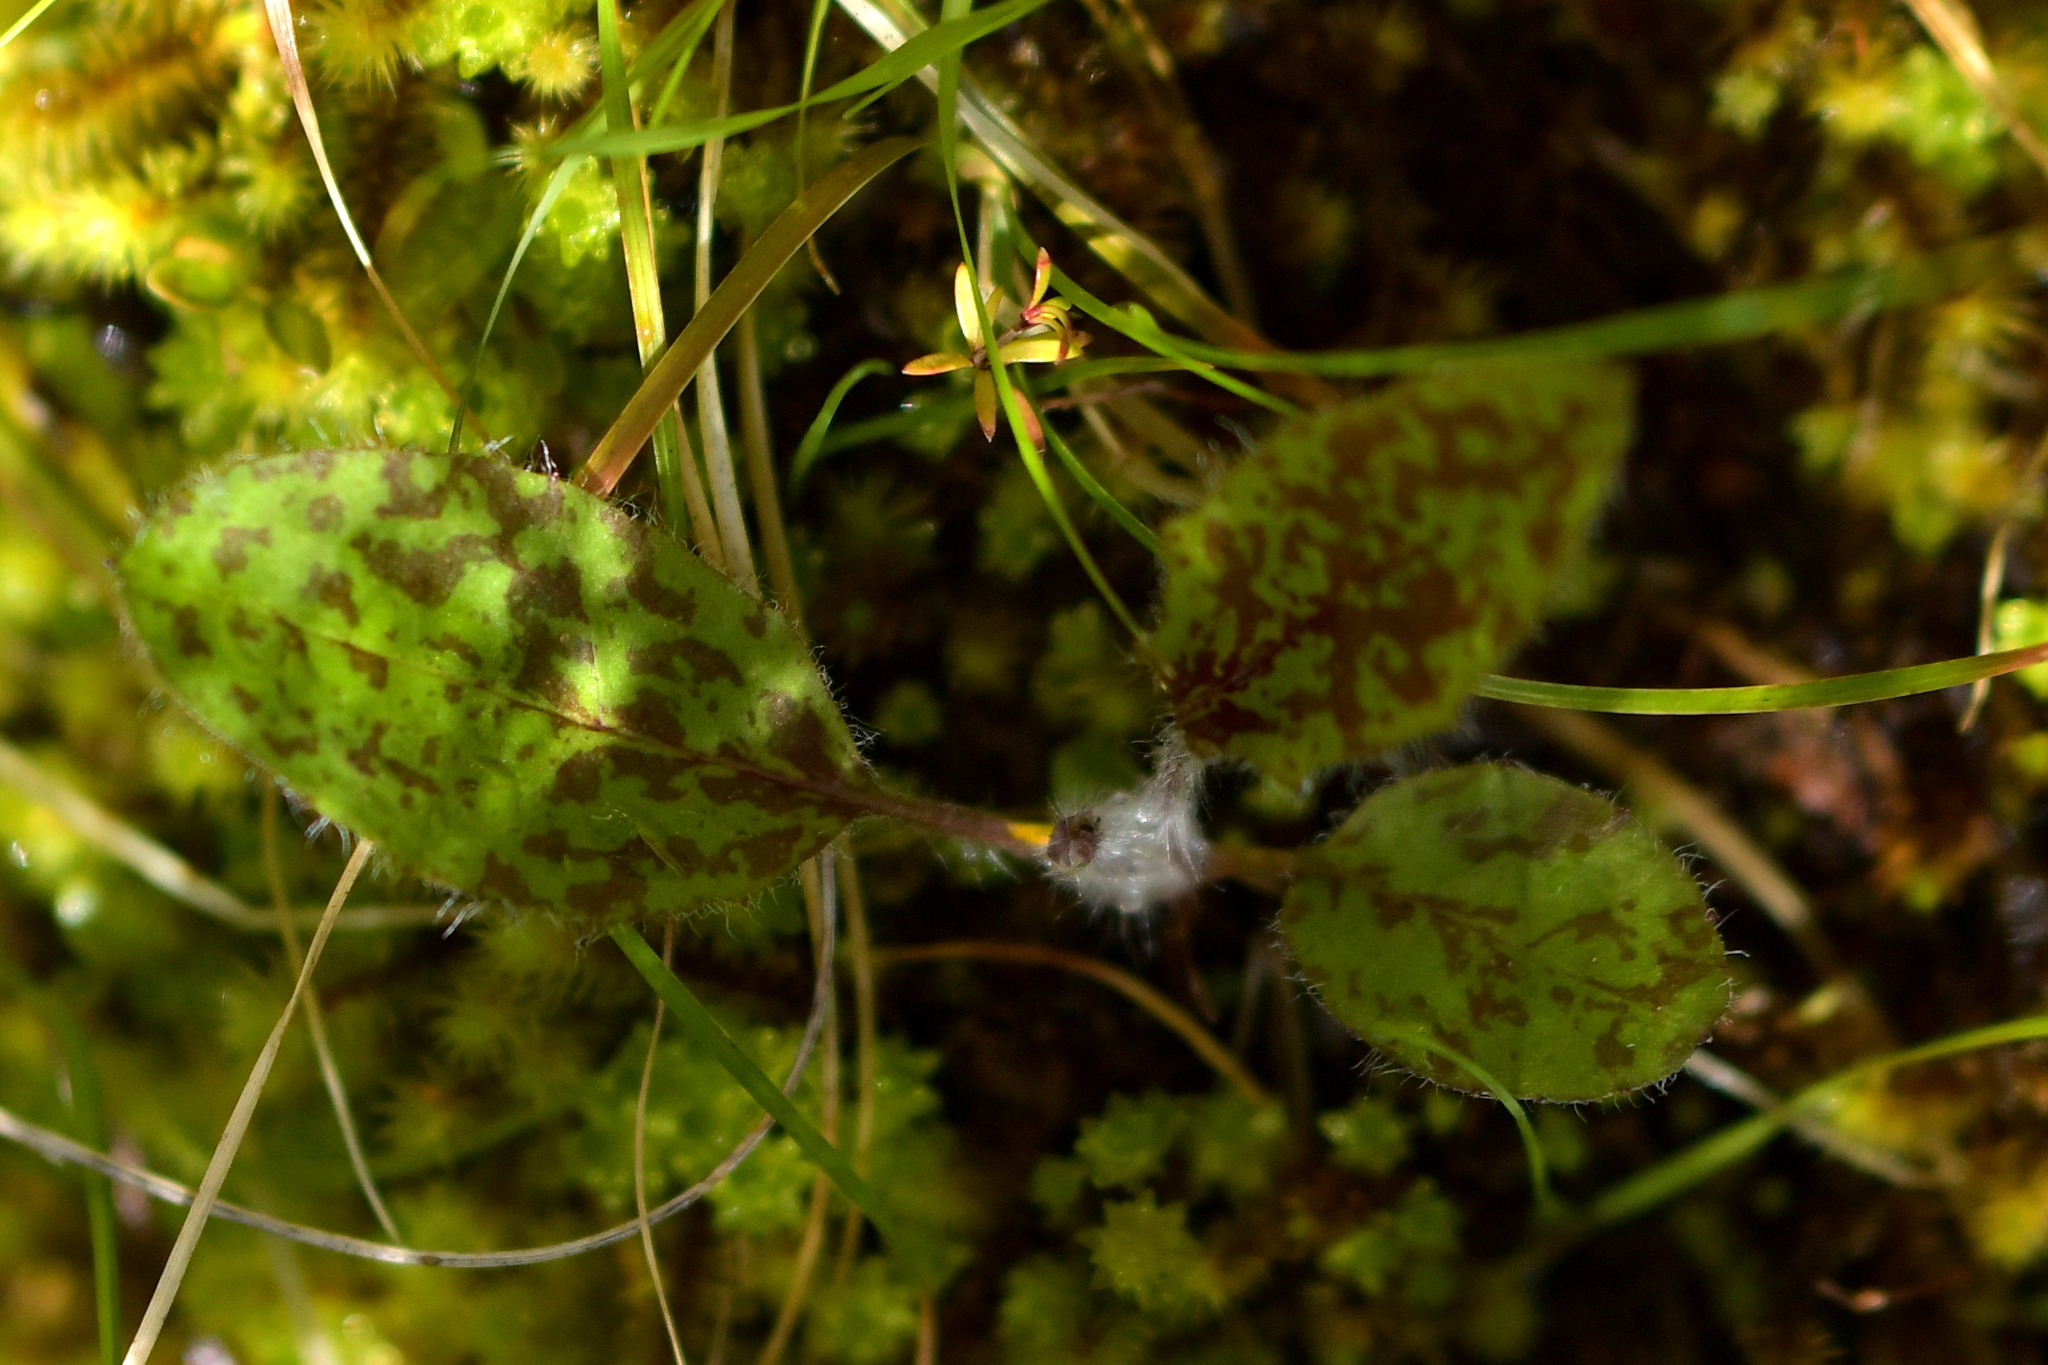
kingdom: Plantae
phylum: Tracheophyta
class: Magnoliopsida
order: Asterales
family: Asteraceae
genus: Hieracium
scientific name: Hieracium maculatum
